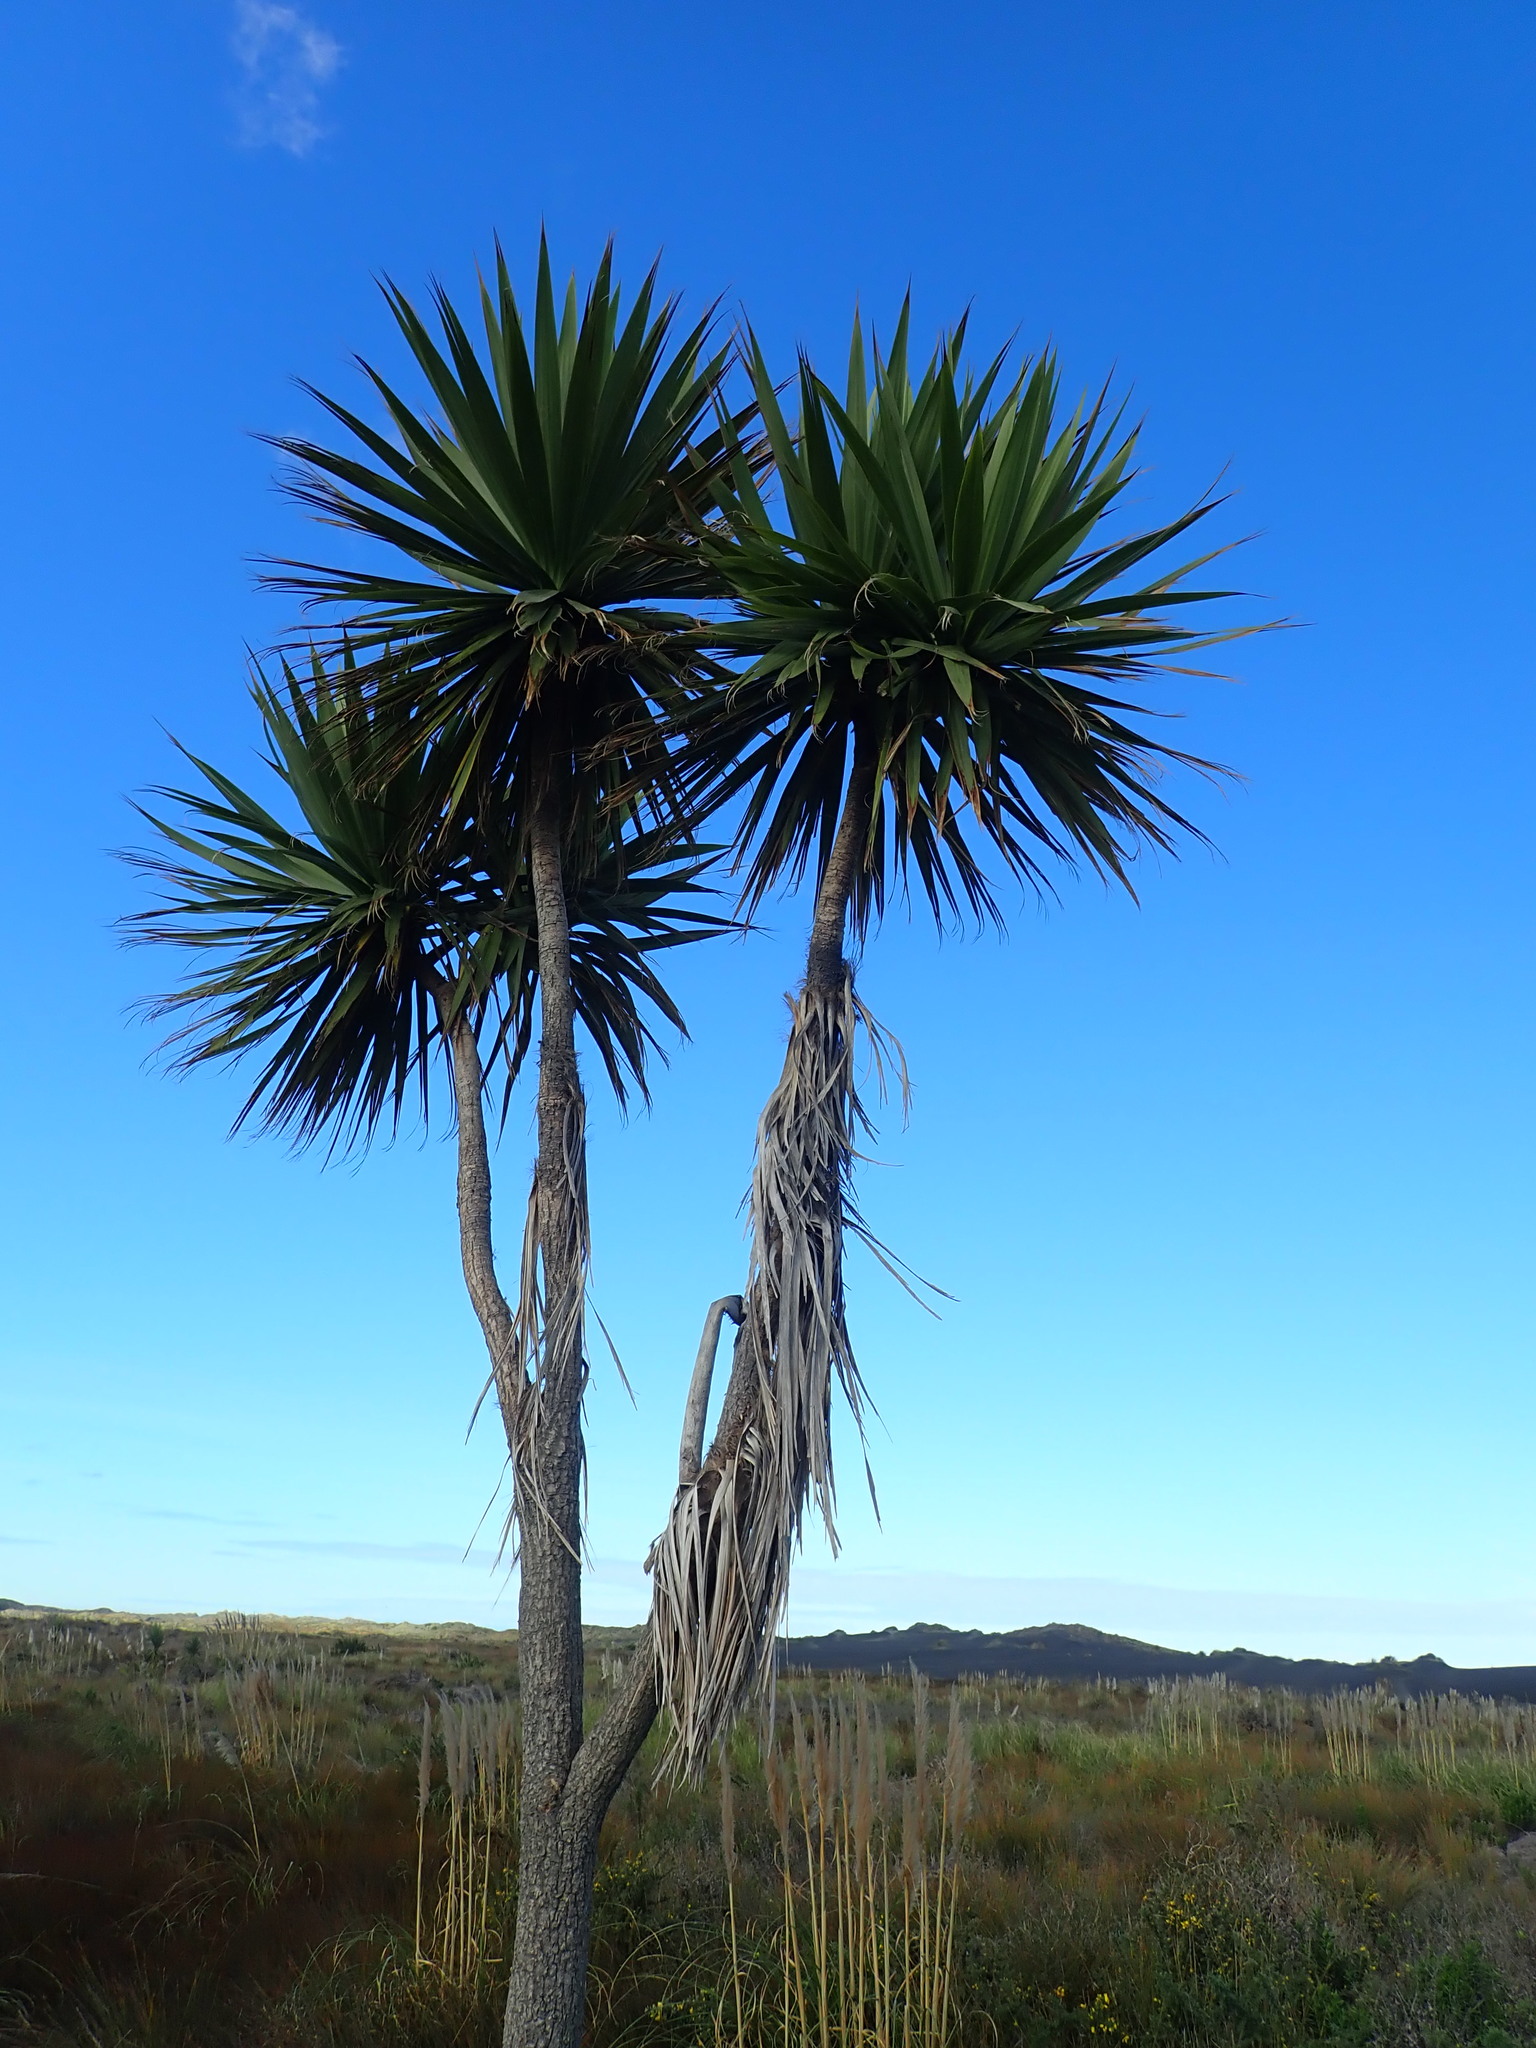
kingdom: Plantae
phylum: Tracheophyta
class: Liliopsida
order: Asparagales
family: Asparagaceae
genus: Cordyline
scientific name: Cordyline australis
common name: Cabbage-palm
